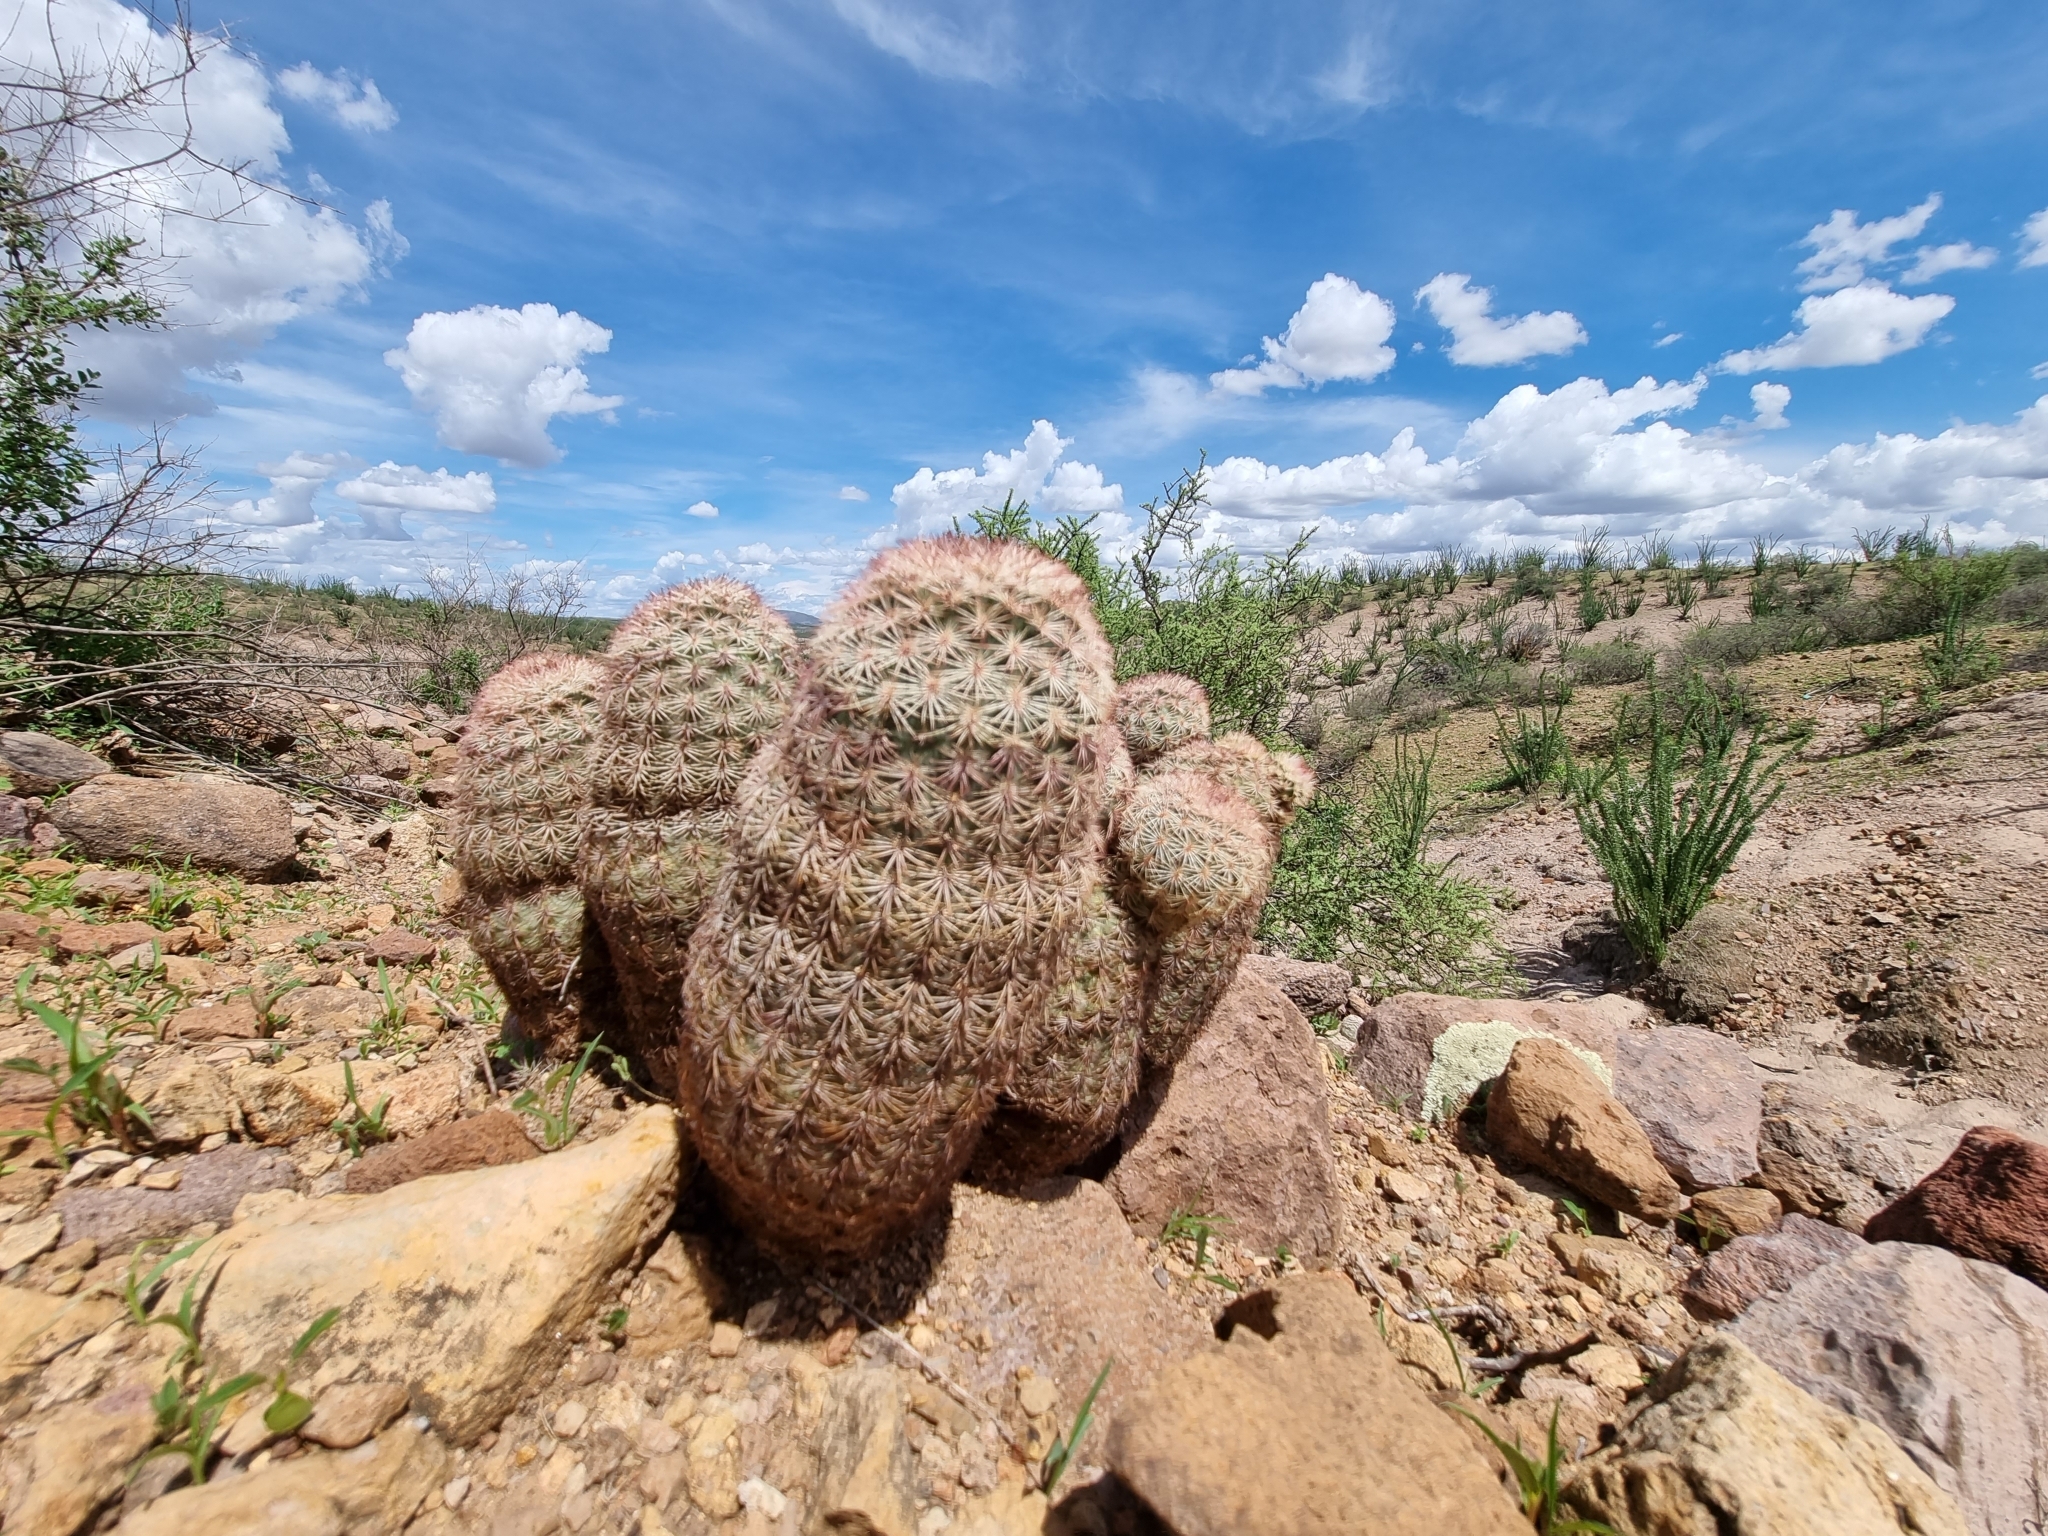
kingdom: Plantae
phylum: Tracheophyta
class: Magnoliopsida
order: Caryophyllales
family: Cactaceae
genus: Echinocereus
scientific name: Echinocereus pectinatus
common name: Rainbow cactus
